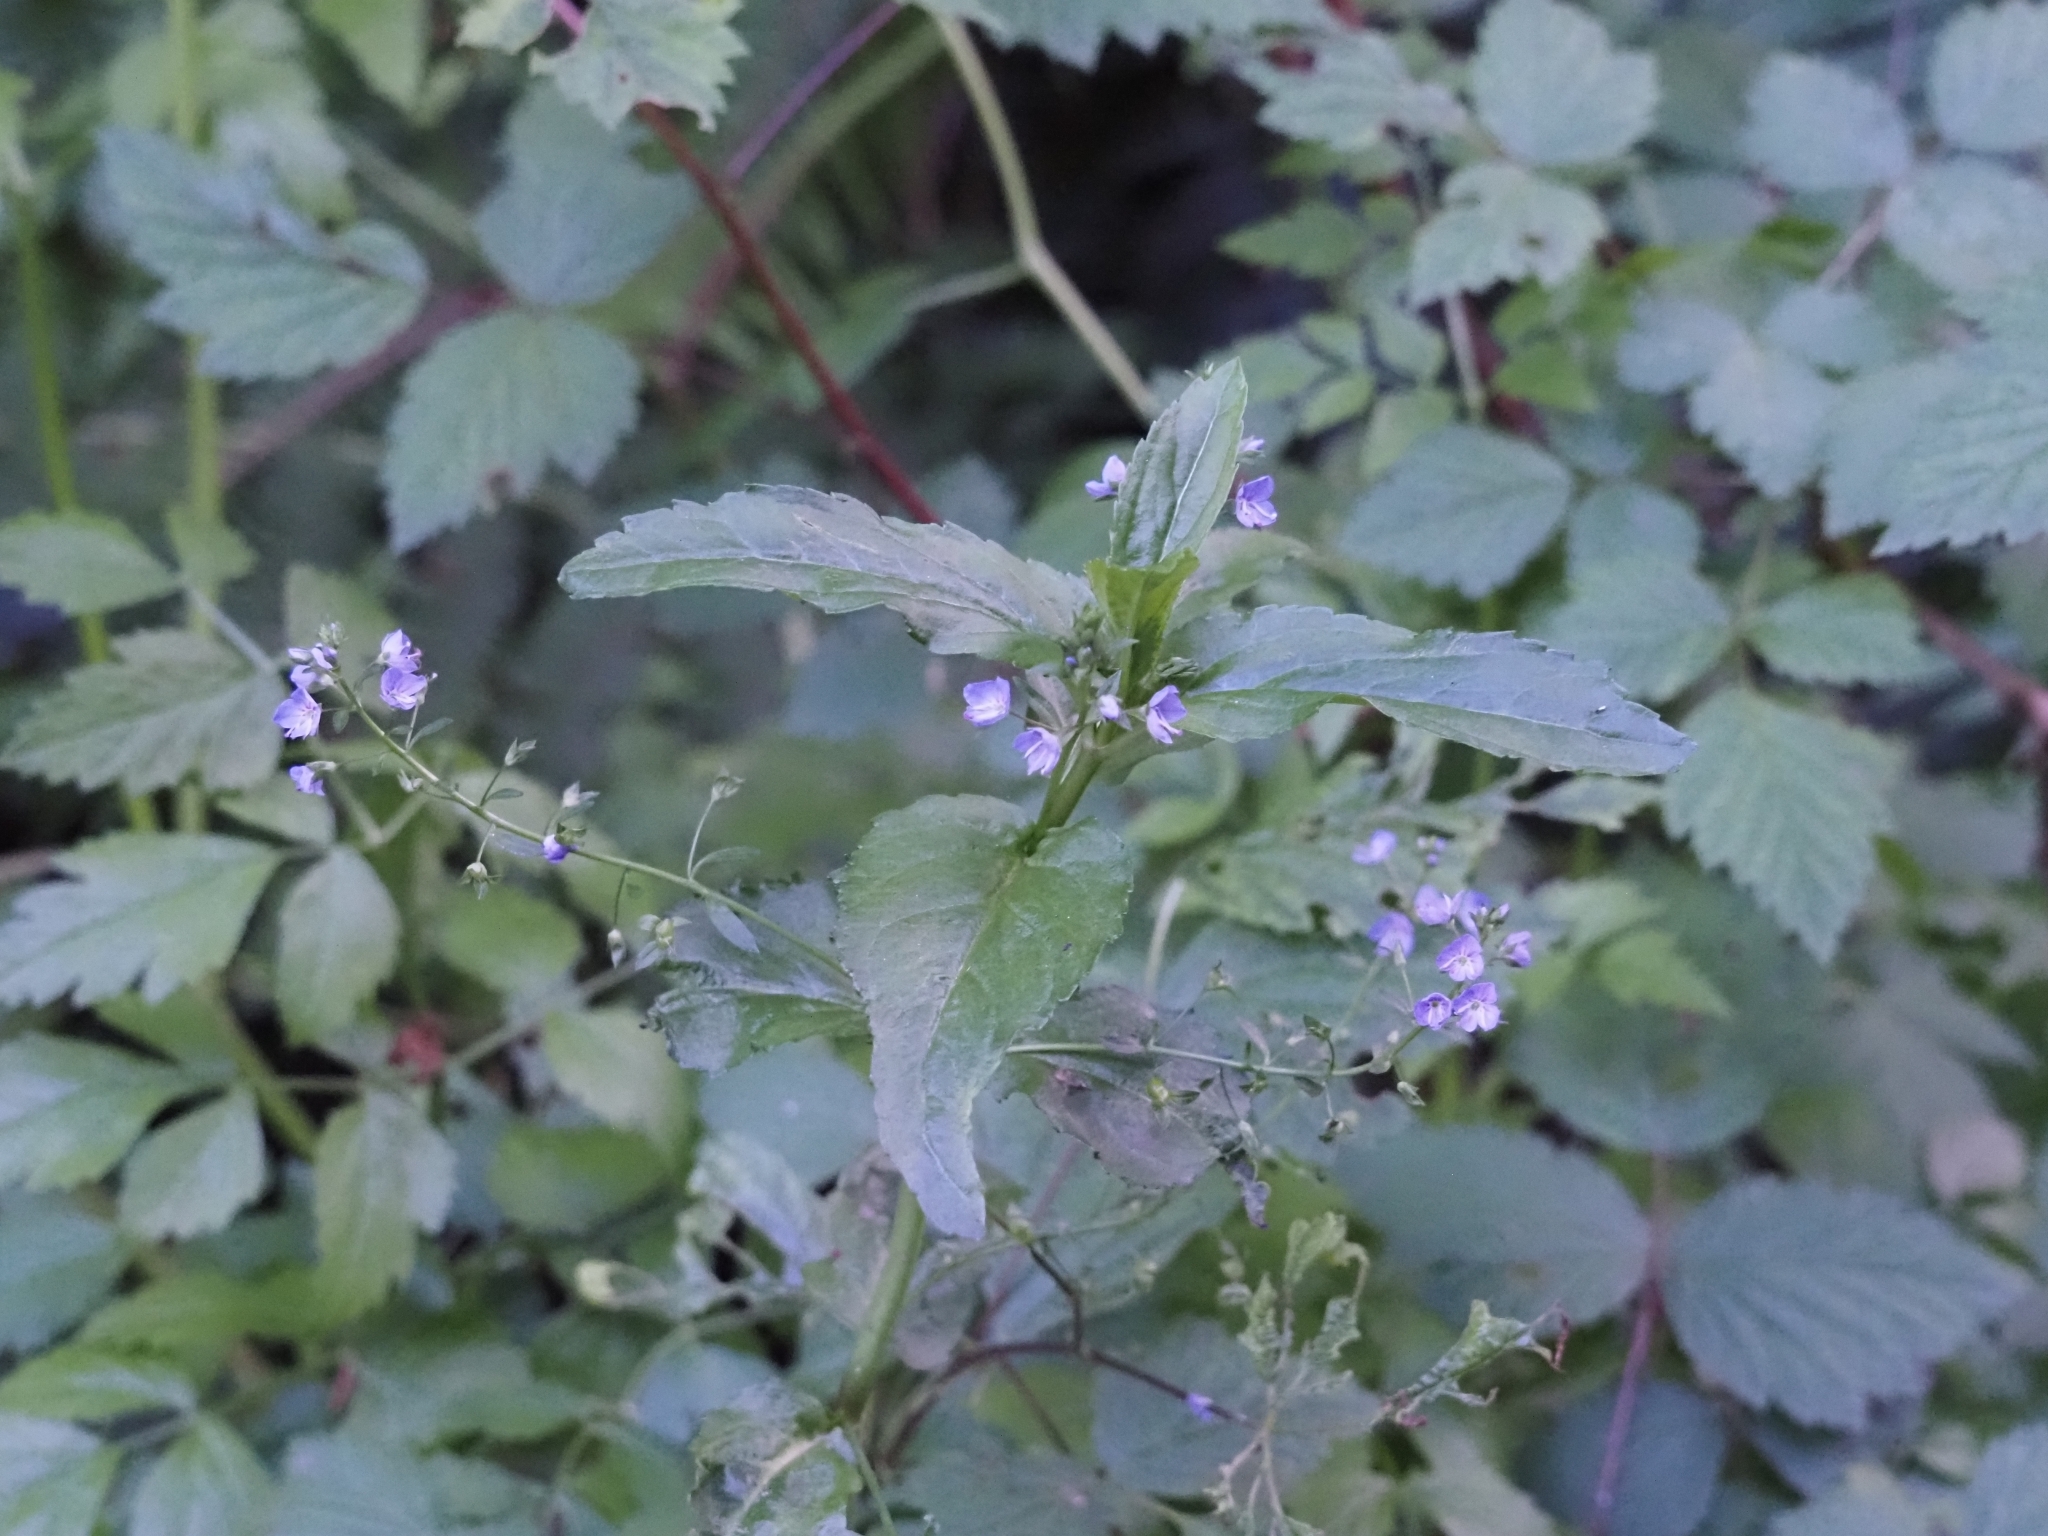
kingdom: Plantae
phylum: Tracheophyta
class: Magnoliopsida
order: Lamiales
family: Plantaginaceae
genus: Veronica
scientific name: Veronica americana
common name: American brooklime
